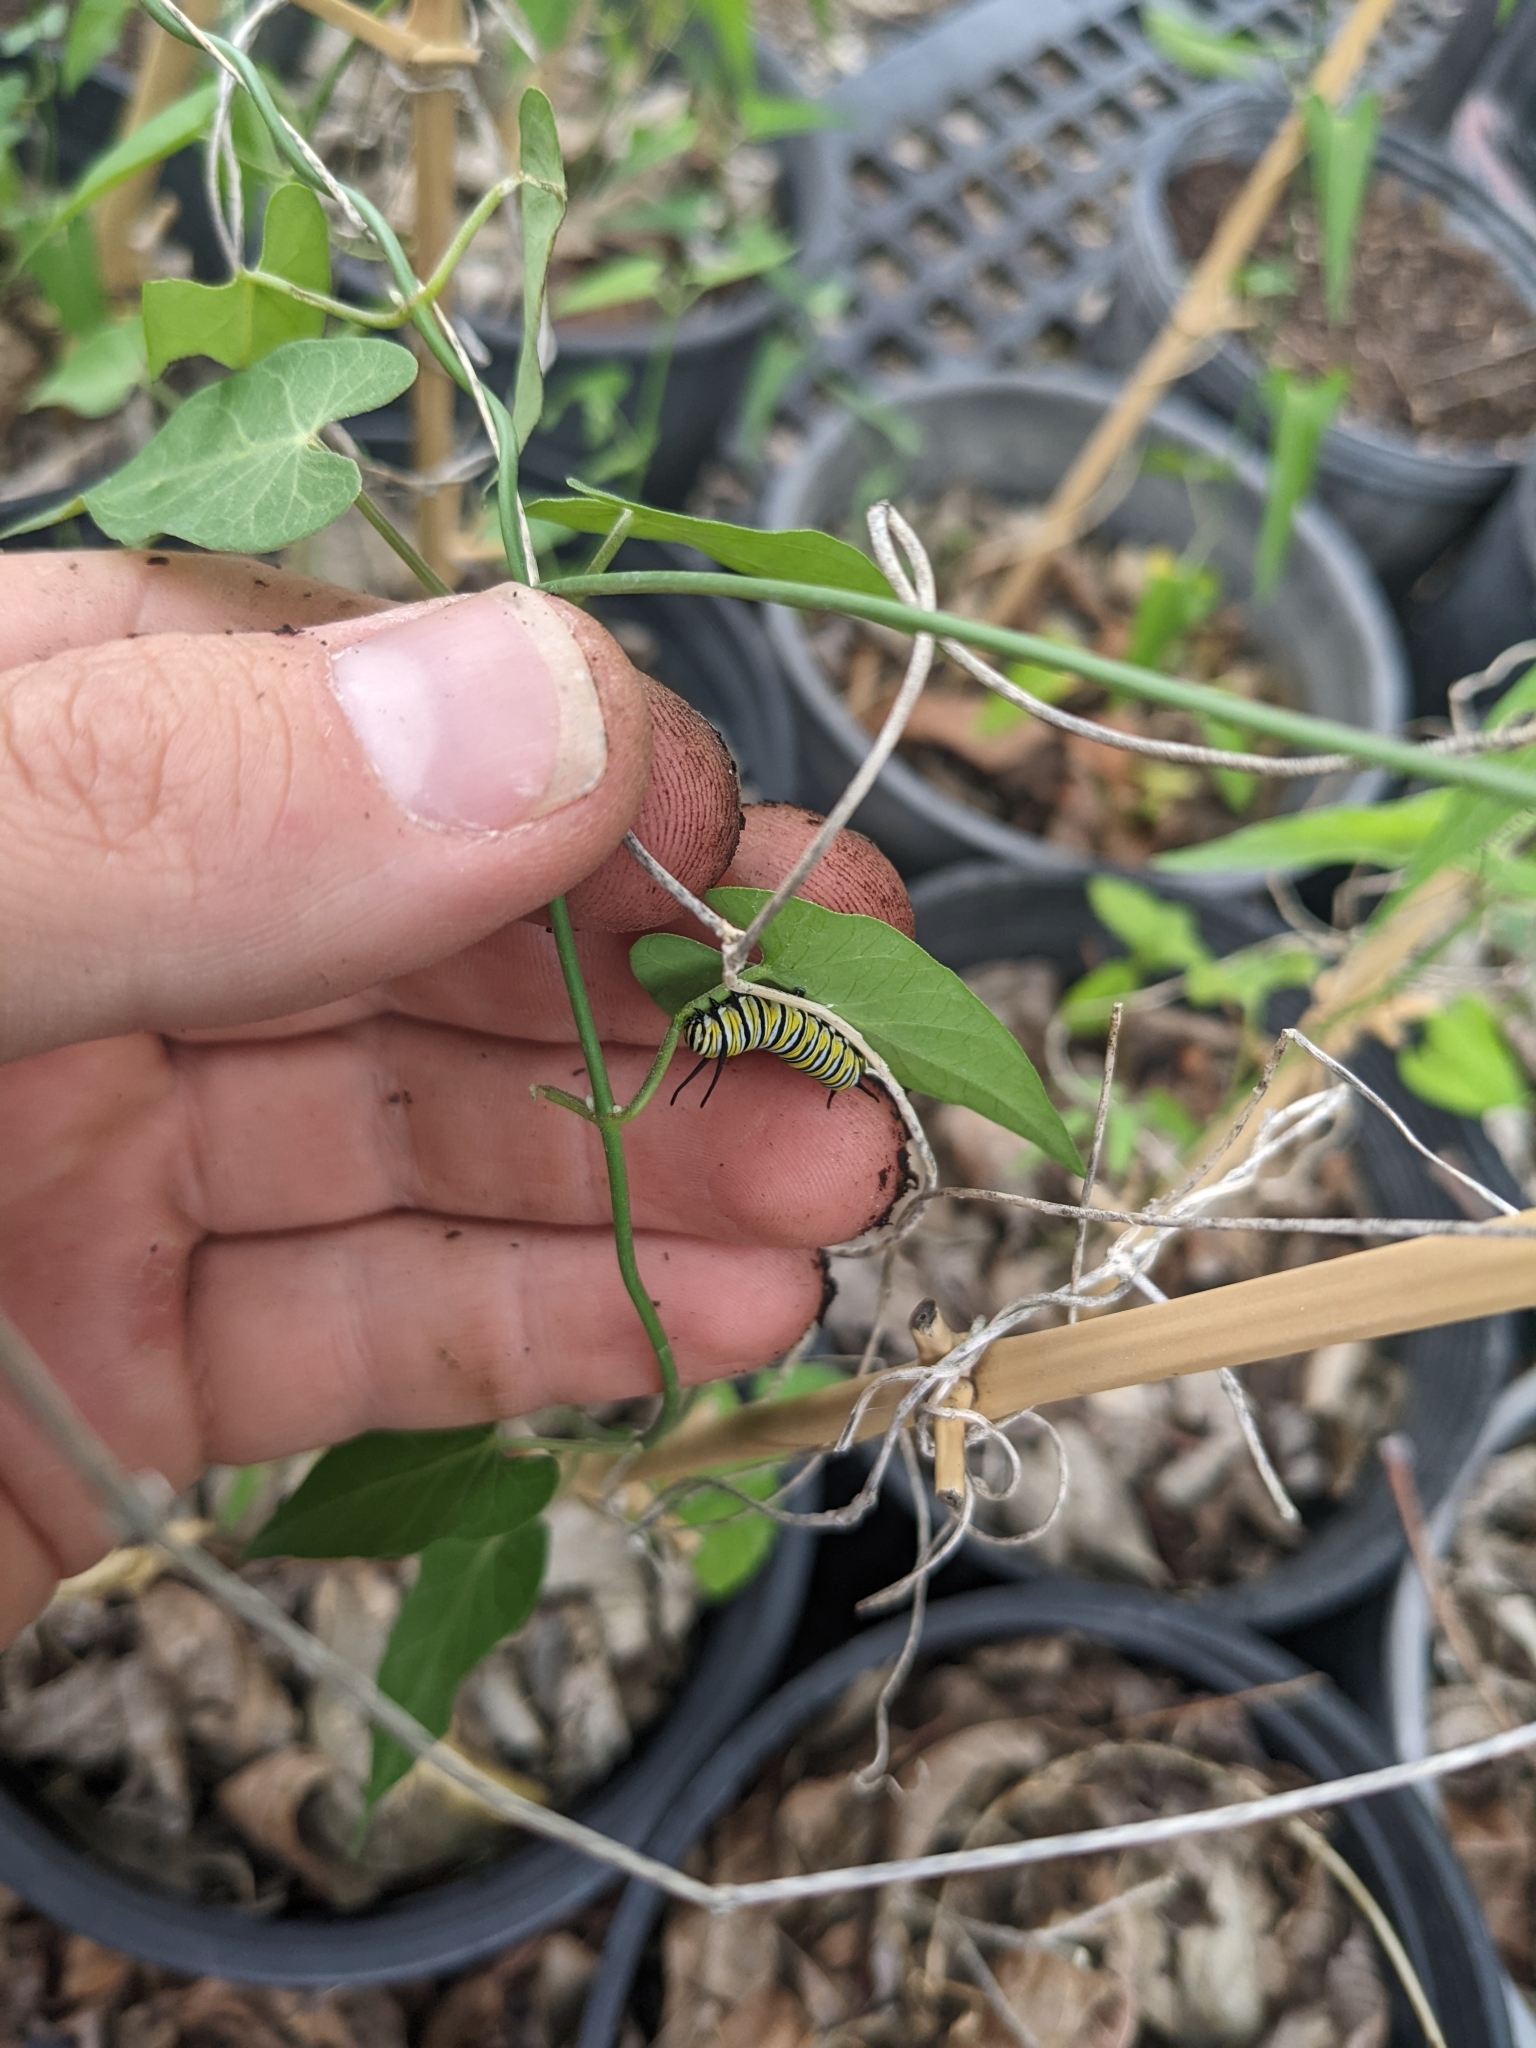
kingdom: Animalia
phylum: Arthropoda
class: Insecta
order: Lepidoptera
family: Nymphalidae
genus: Danaus
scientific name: Danaus plexippus
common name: Monarch
